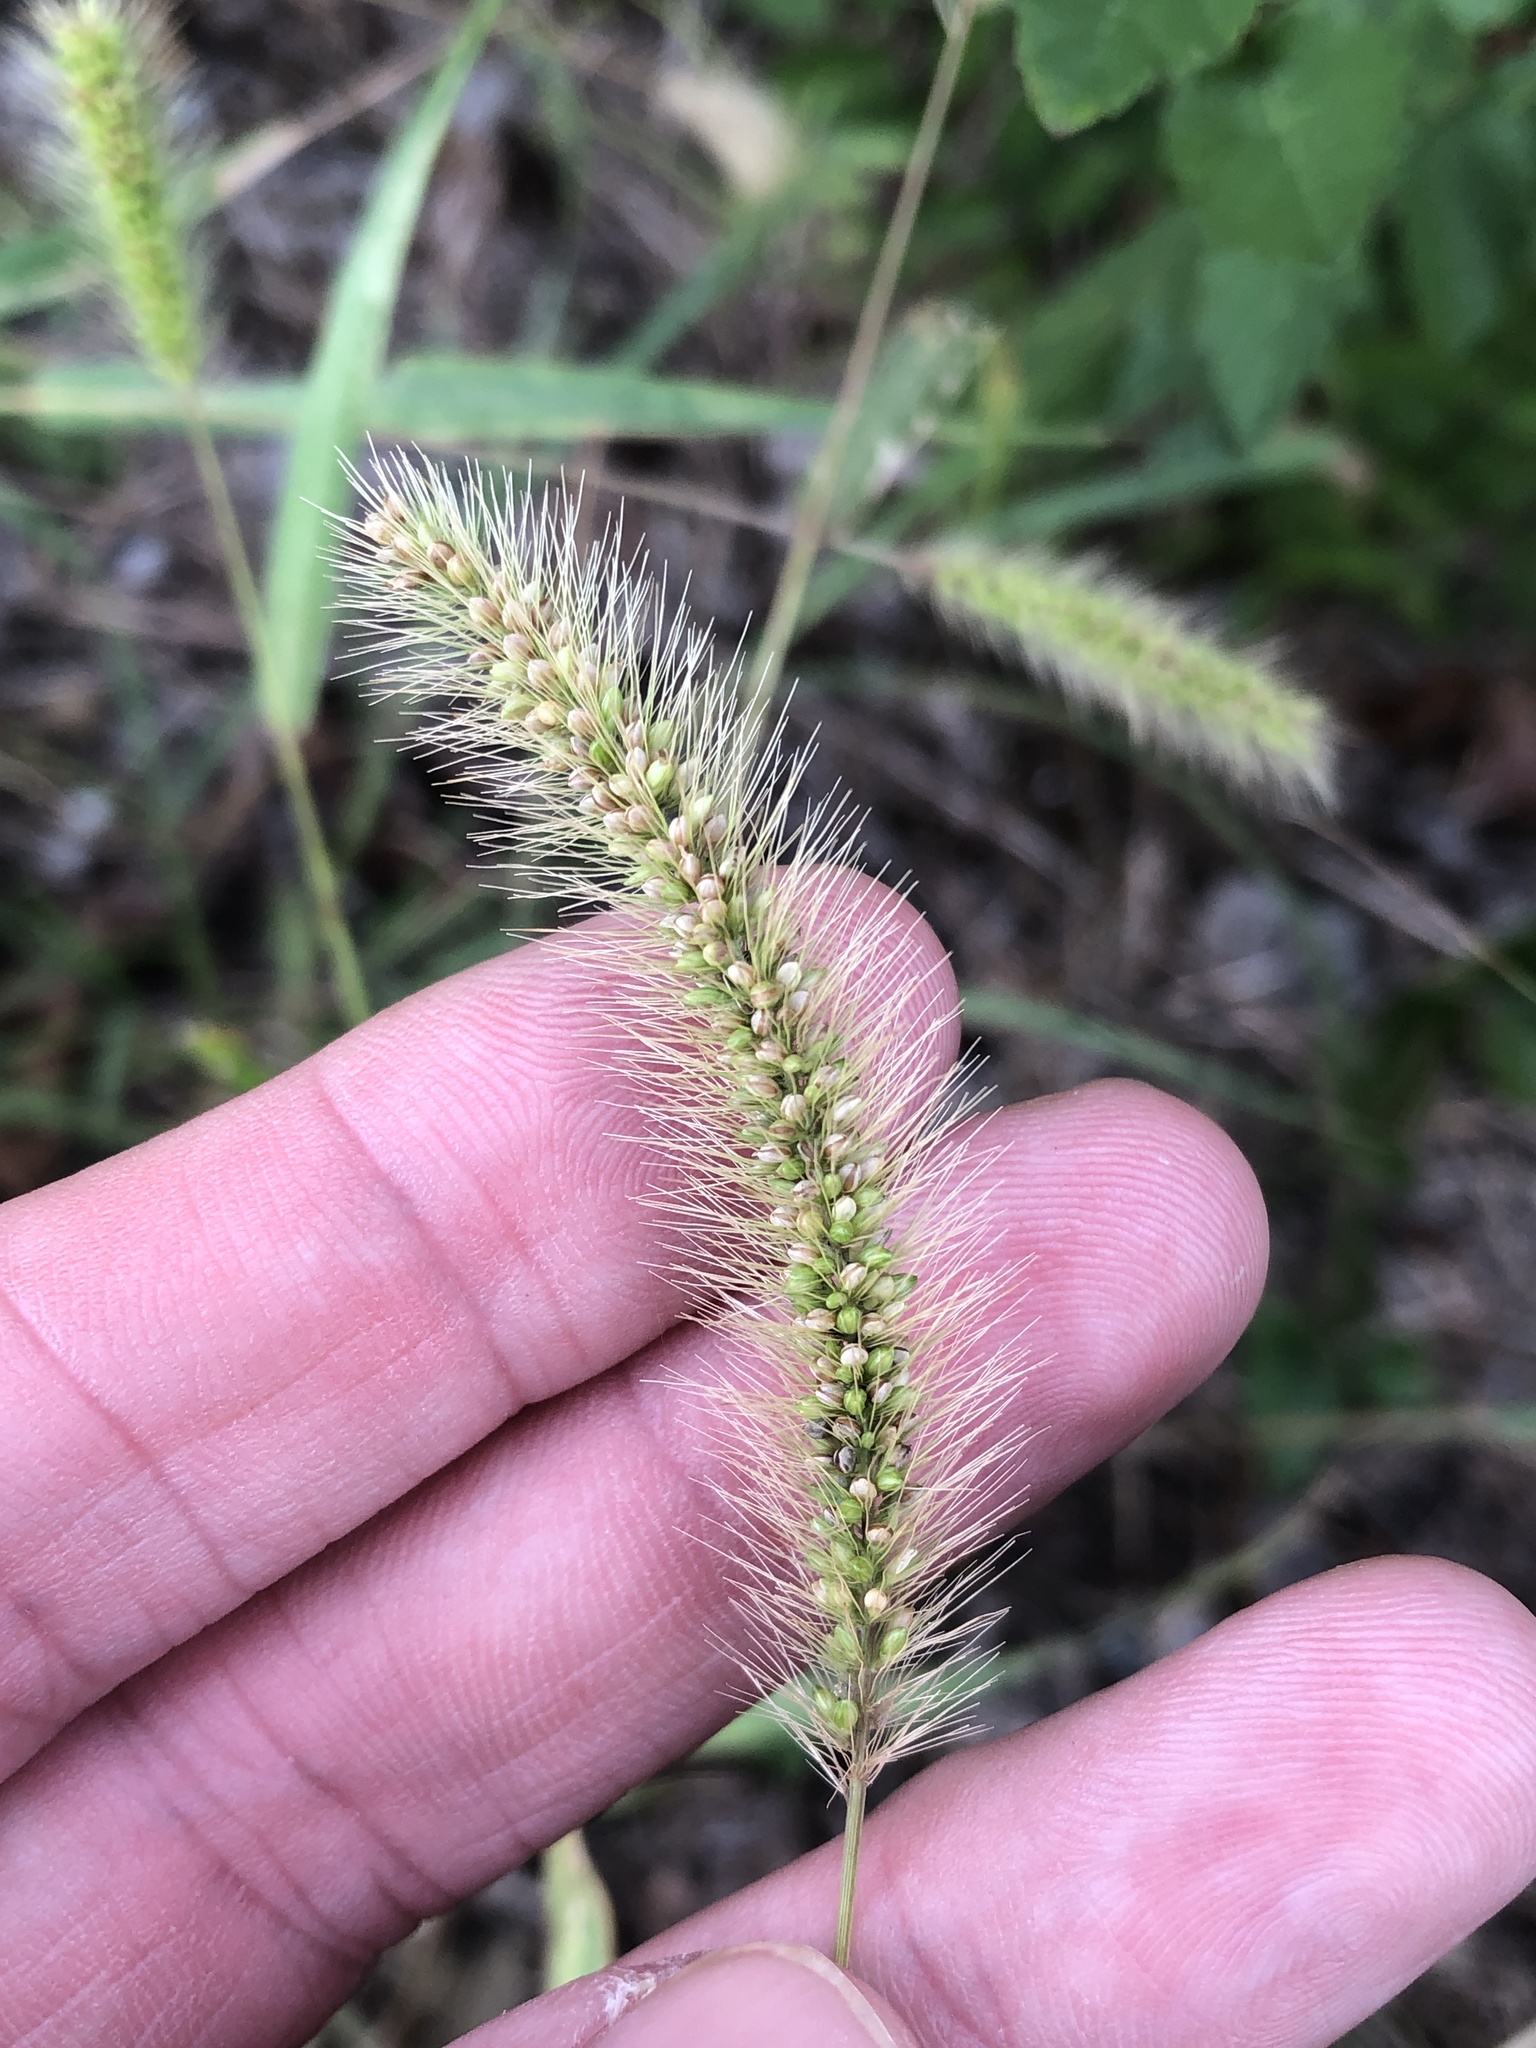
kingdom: Plantae
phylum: Tracheophyta
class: Liliopsida
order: Poales
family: Poaceae
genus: Setaria
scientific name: Setaria viridis
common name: Green bristlegrass
